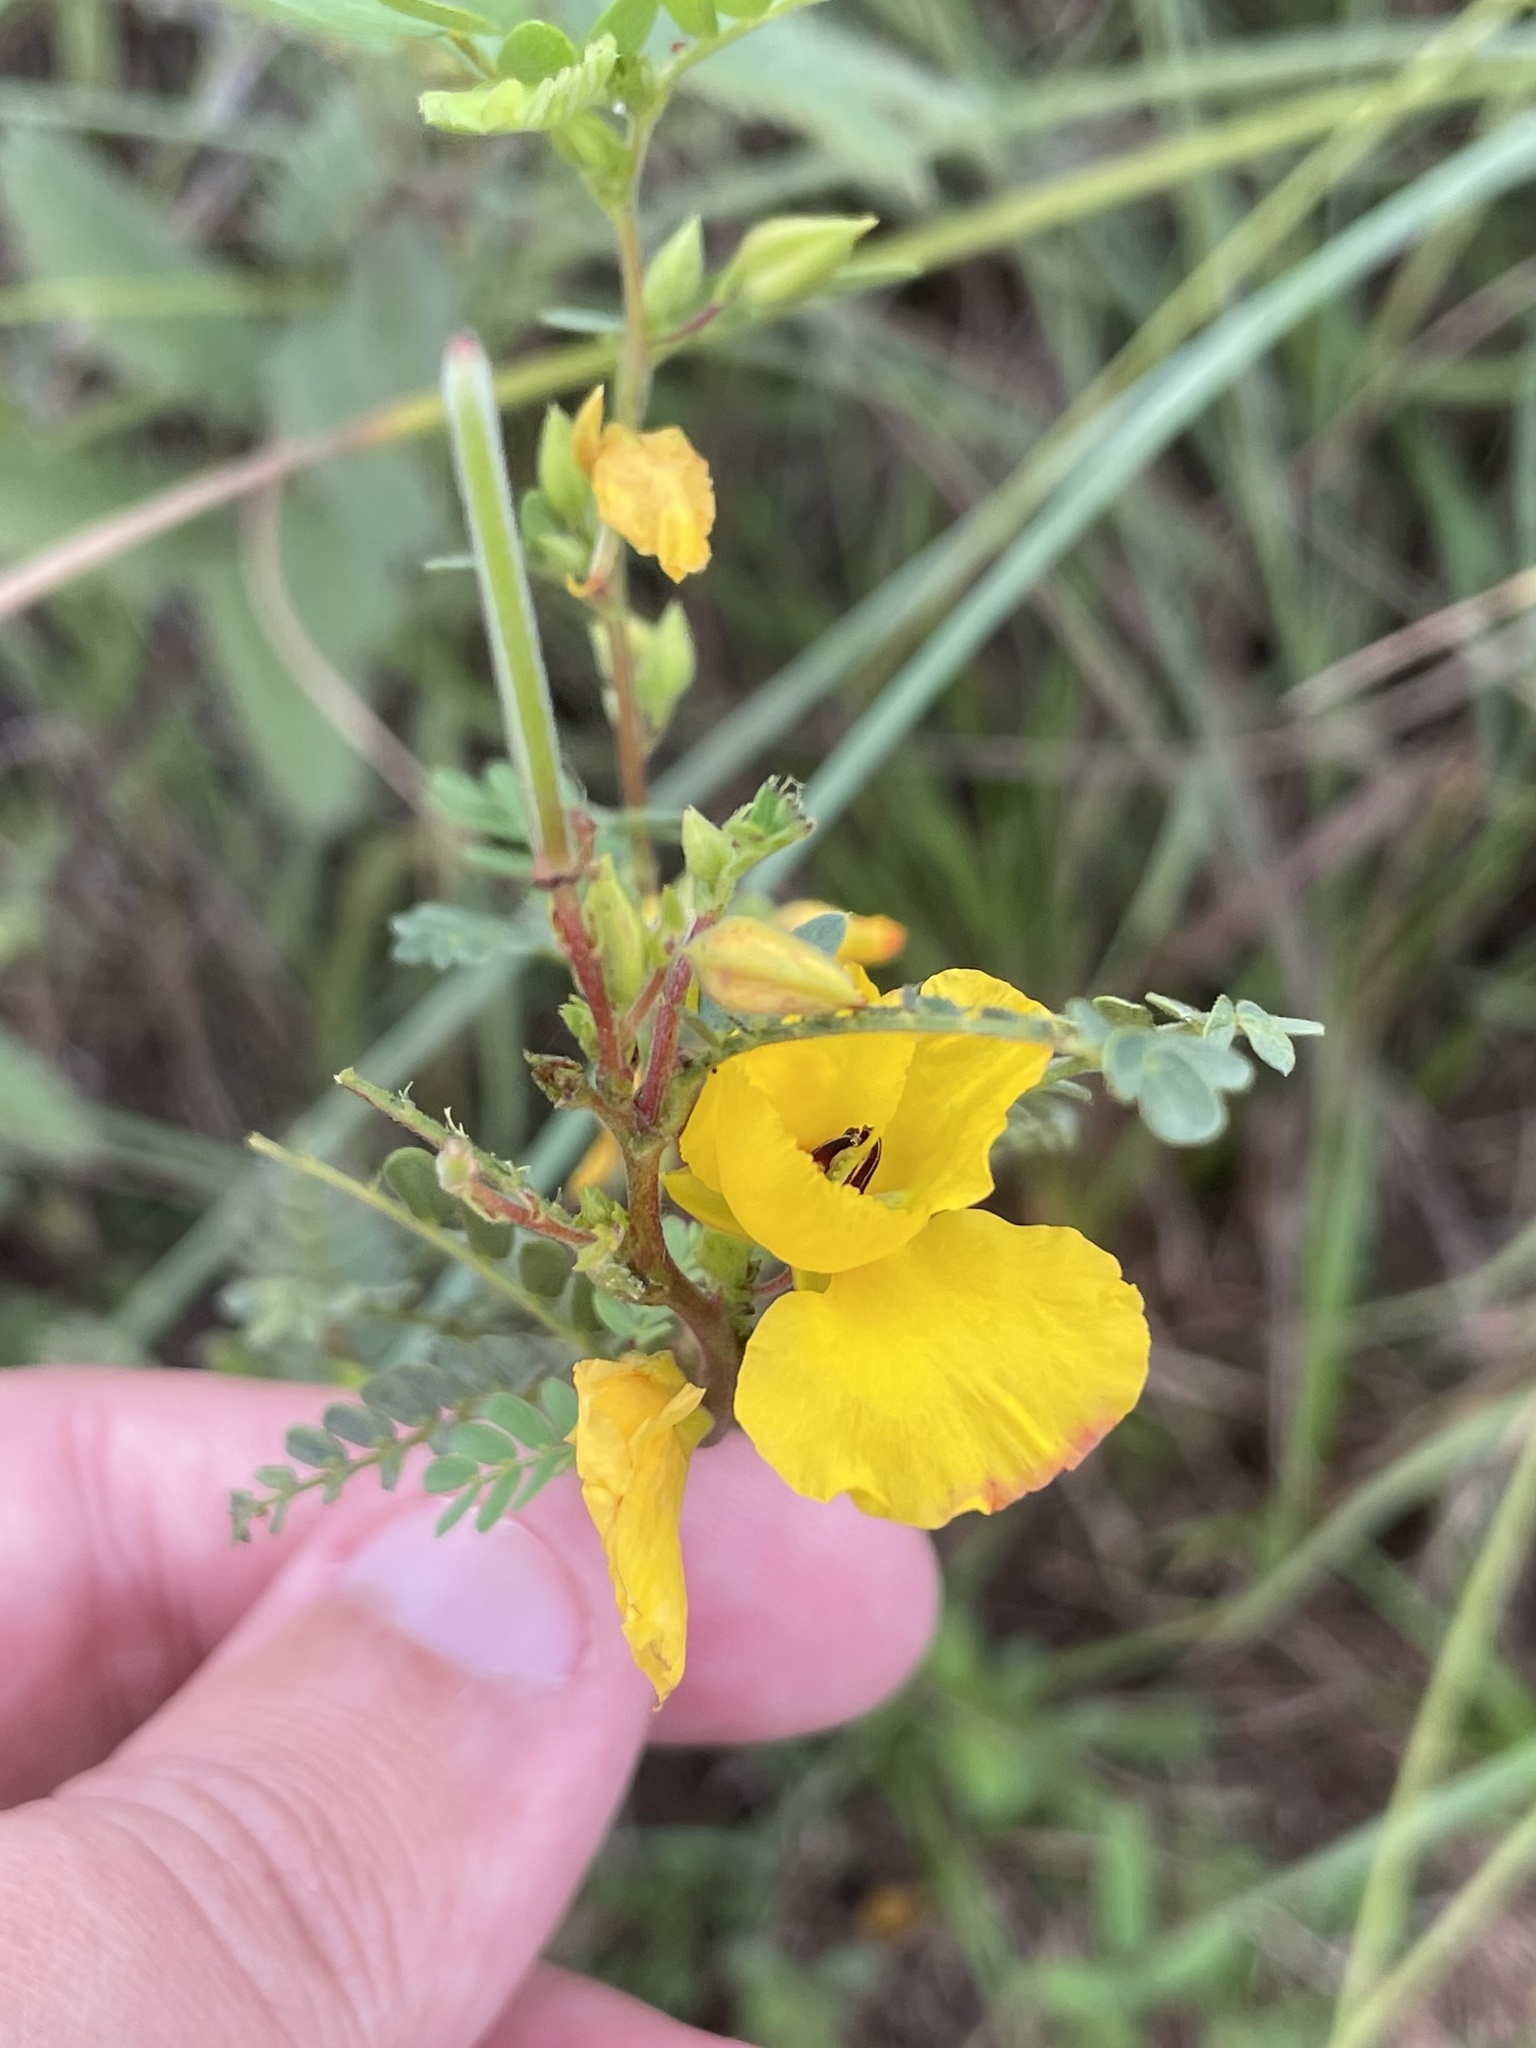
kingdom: Plantae
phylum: Tracheophyta
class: Magnoliopsida
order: Fabales
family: Fabaceae
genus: Chamaecrista
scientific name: Chamaecrista fasciculata
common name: Golden cassia
